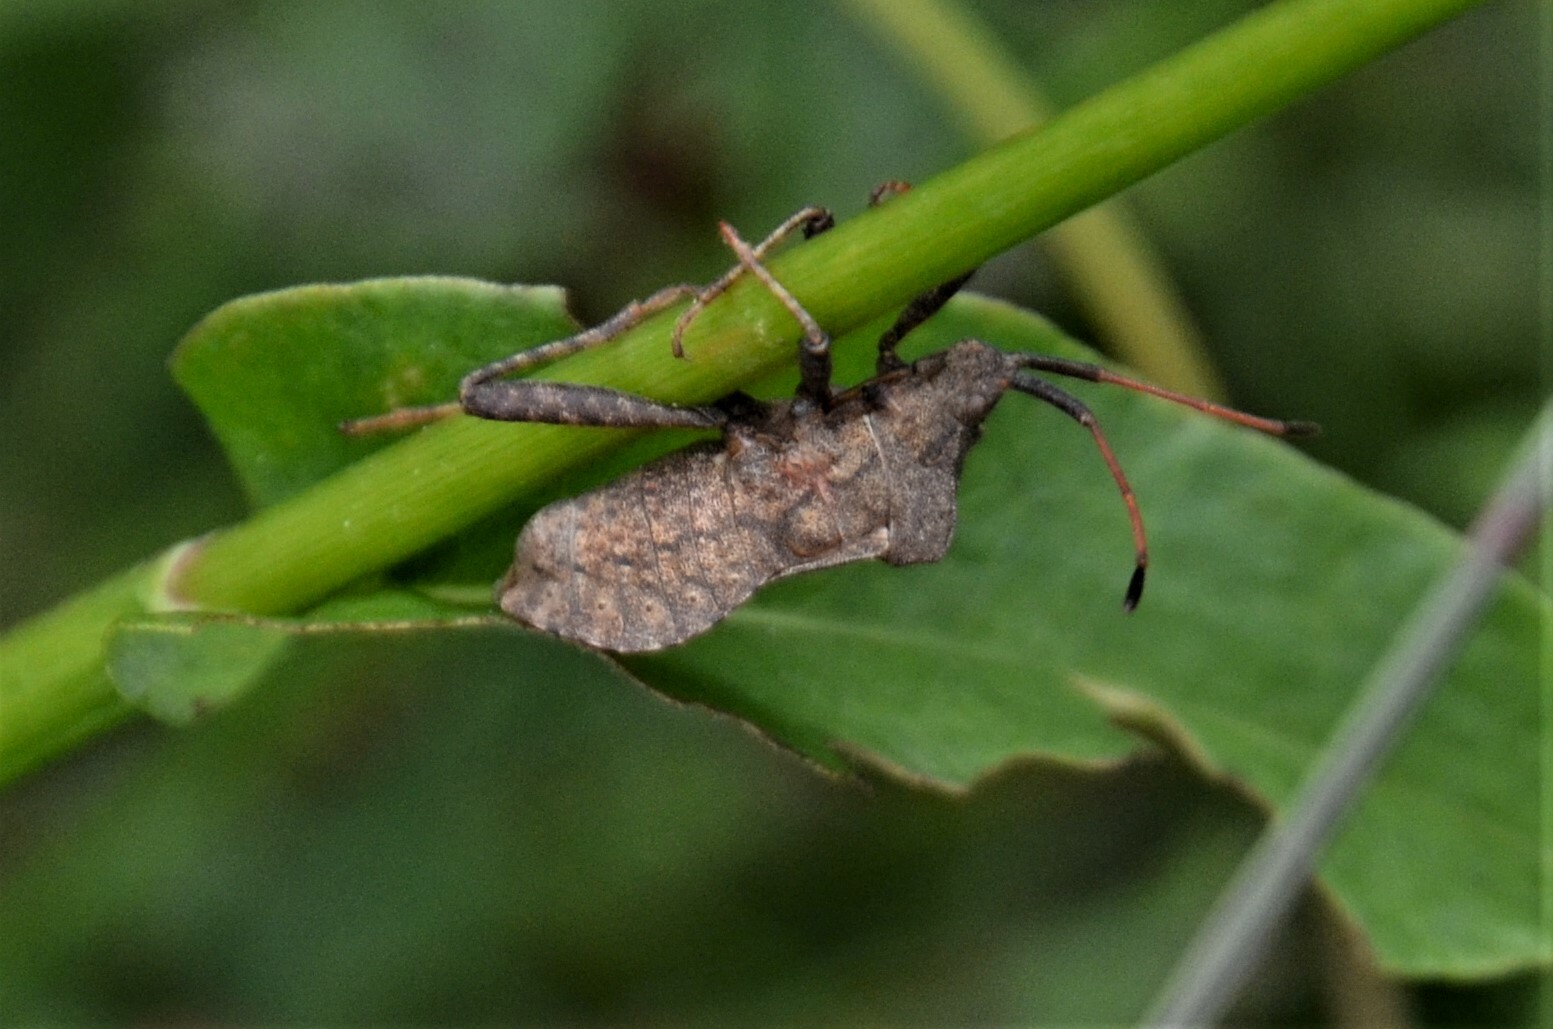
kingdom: Animalia
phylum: Arthropoda
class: Insecta
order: Hemiptera
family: Coreidae
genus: Coreus
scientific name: Coreus marginatus
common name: Dock bug
